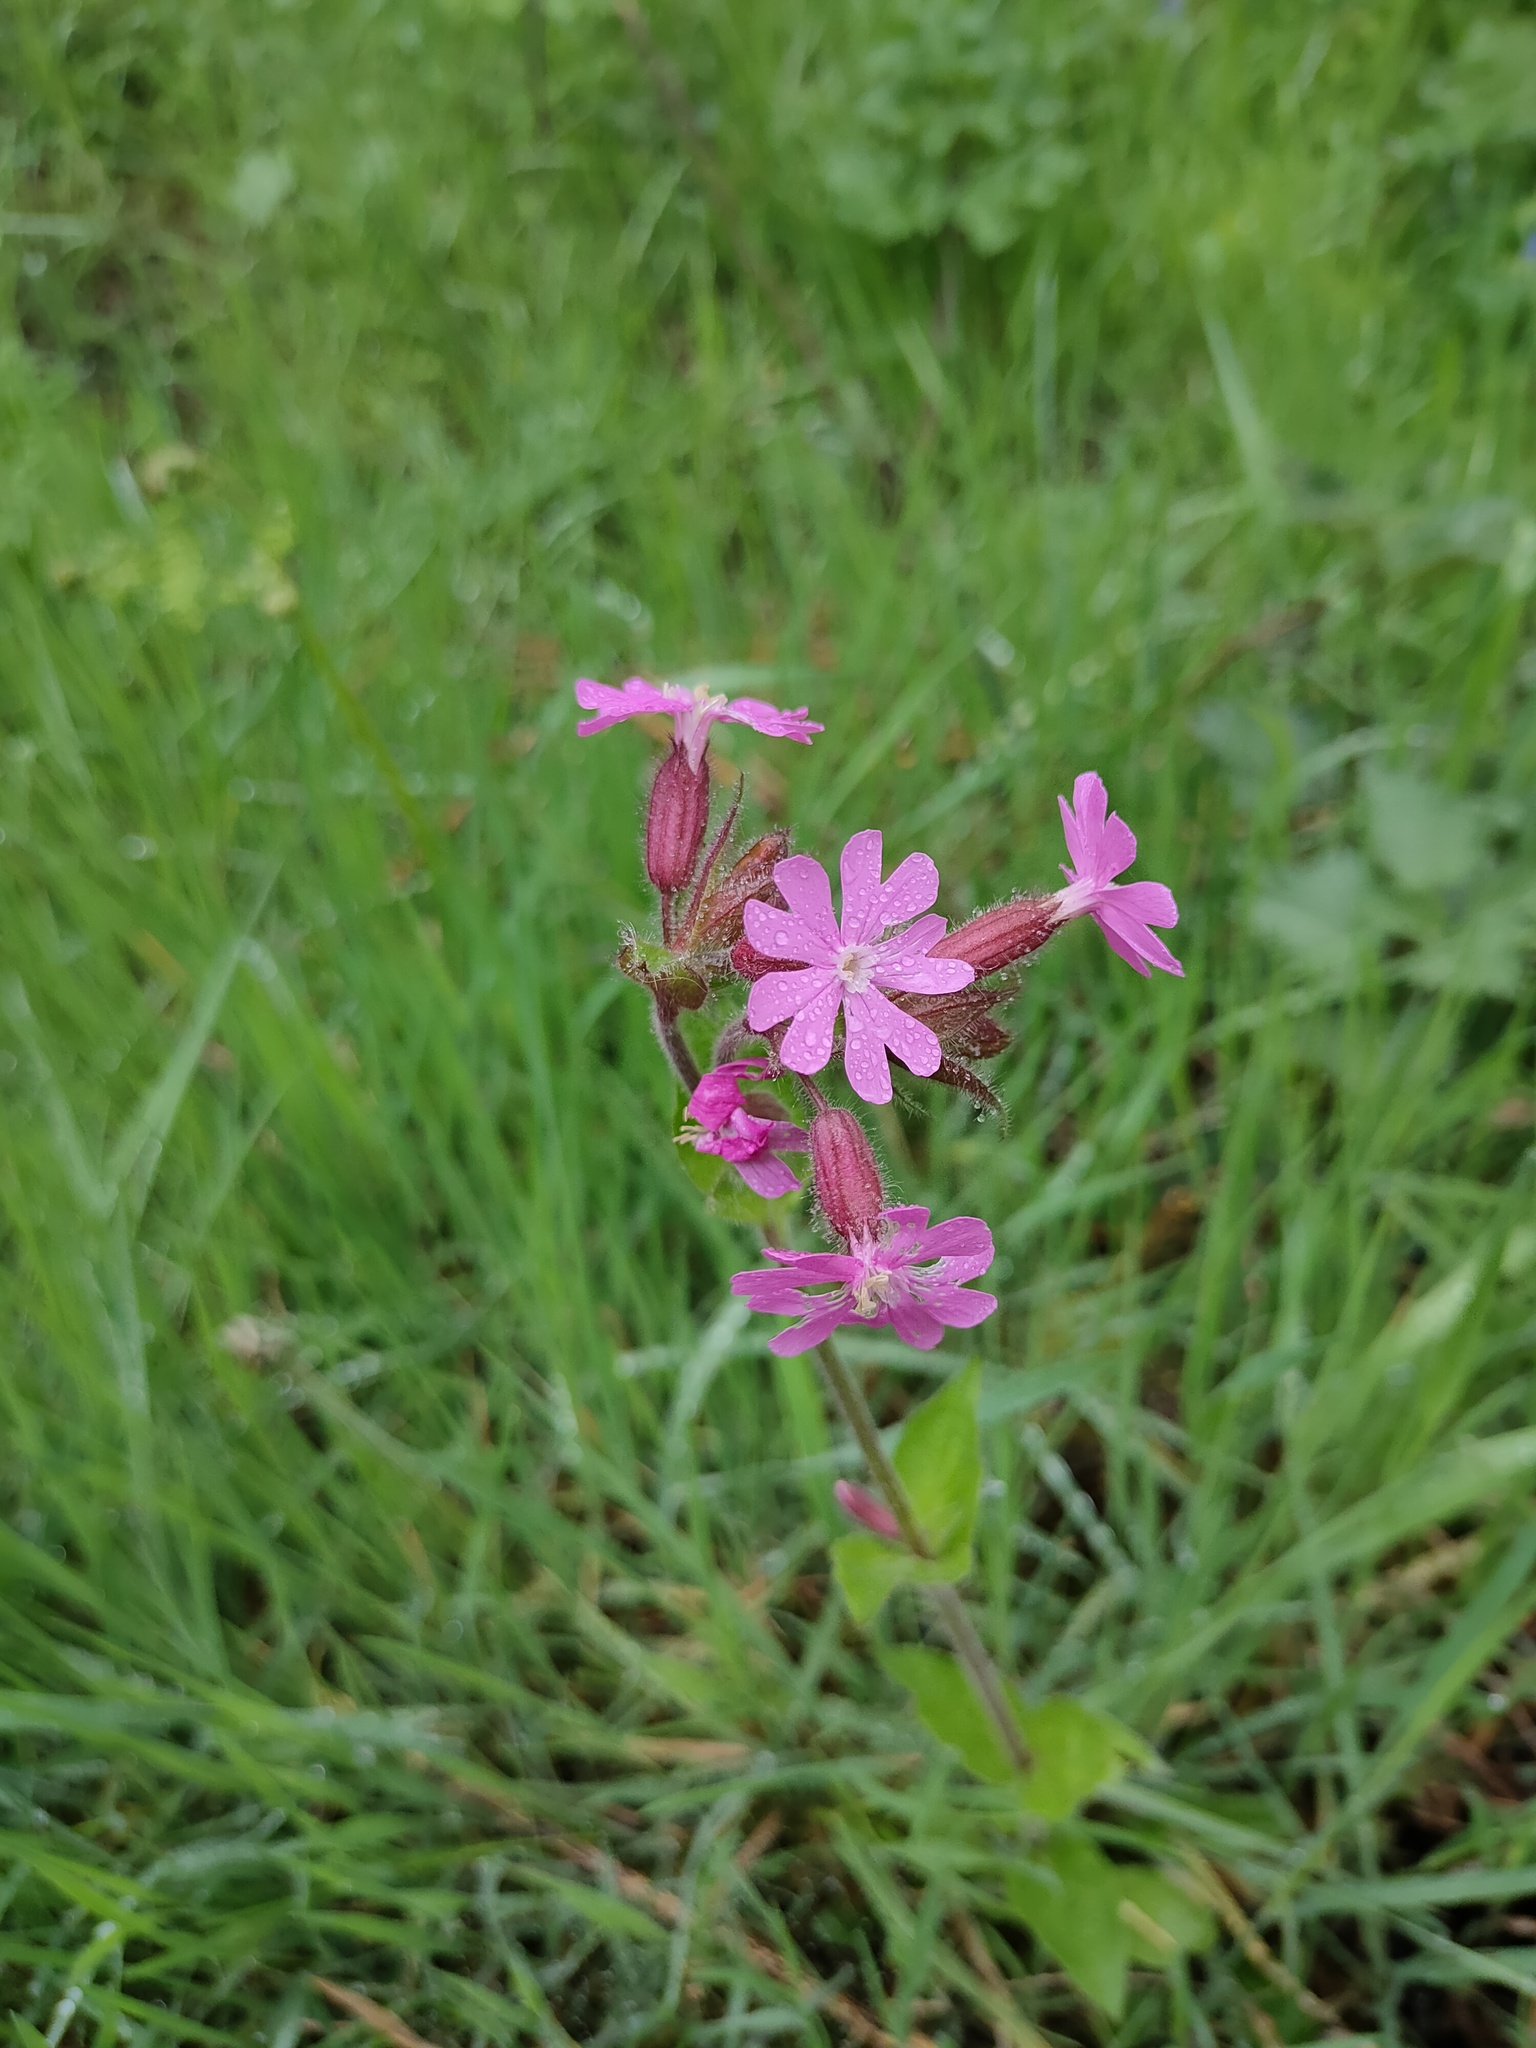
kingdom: Plantae
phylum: Tracheophyta
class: Magnoliopsida
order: Caryophyllales
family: Caryophyllaceae
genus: Silene
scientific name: Silene dioica
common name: Red campion
